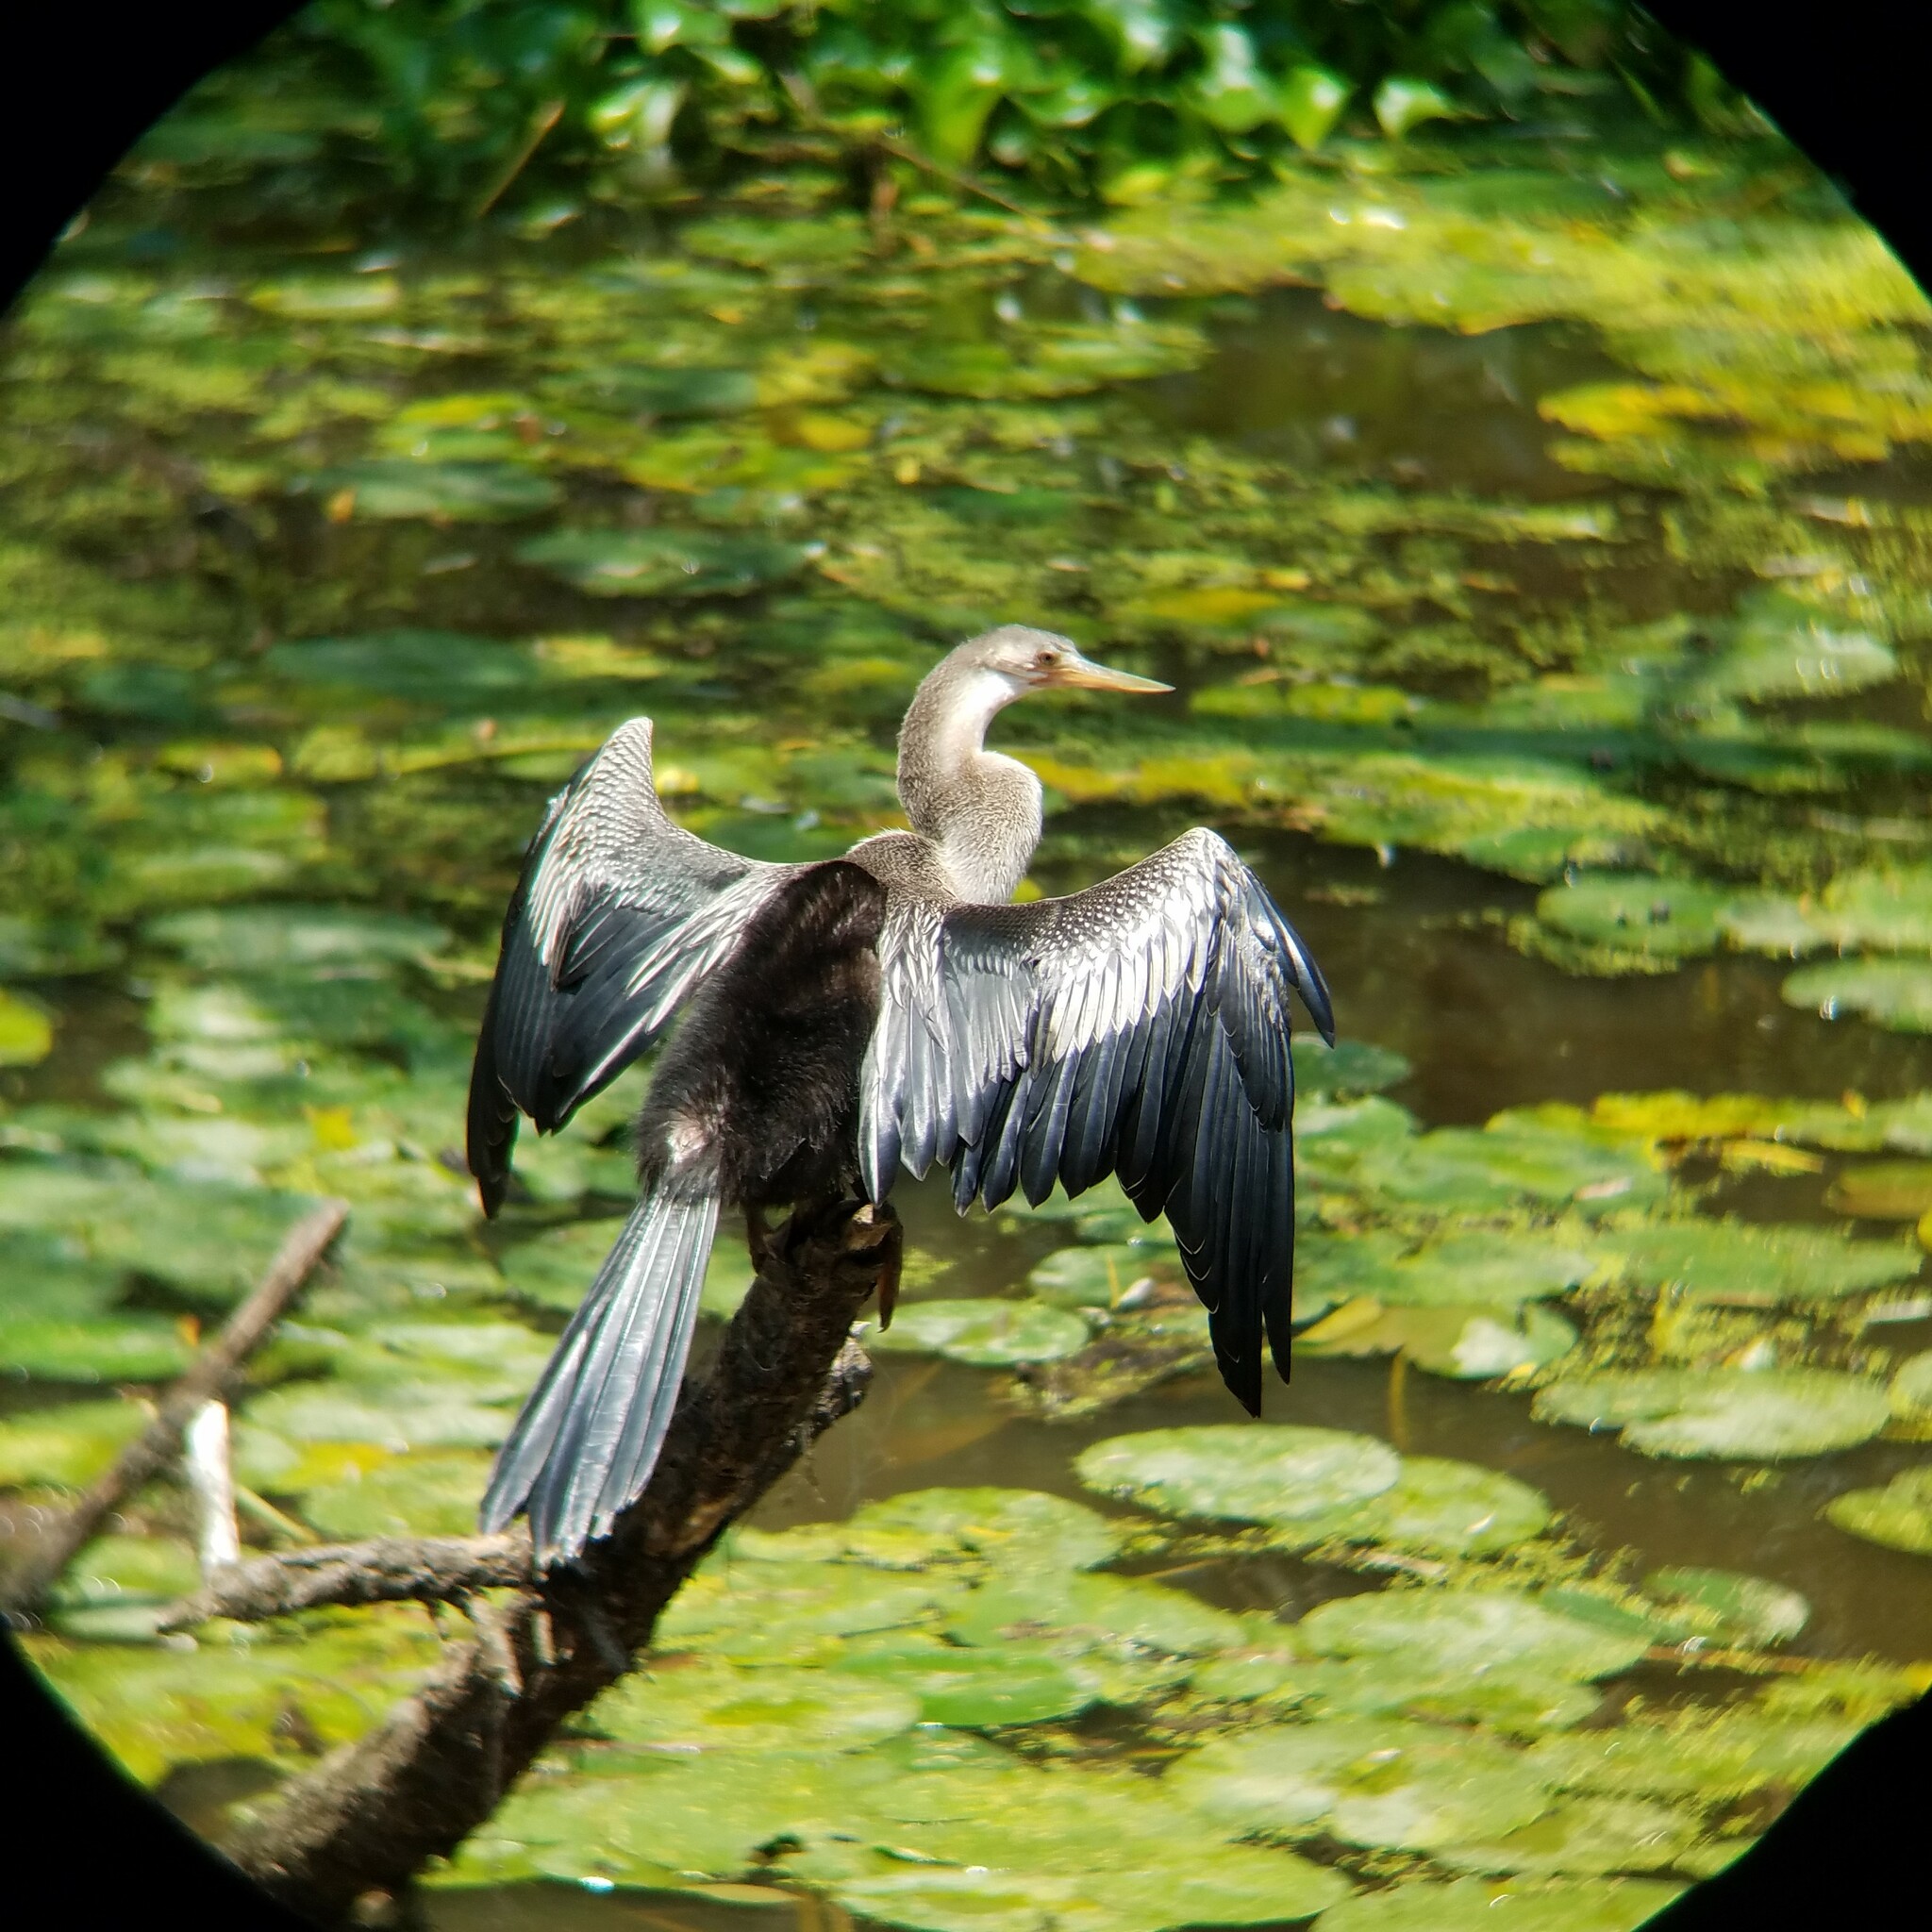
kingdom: Animalia
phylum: Chordata
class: Aves
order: Suliformes
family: Anhingidae
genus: Anhinga
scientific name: Anhinga anhinga
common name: Anhinga
